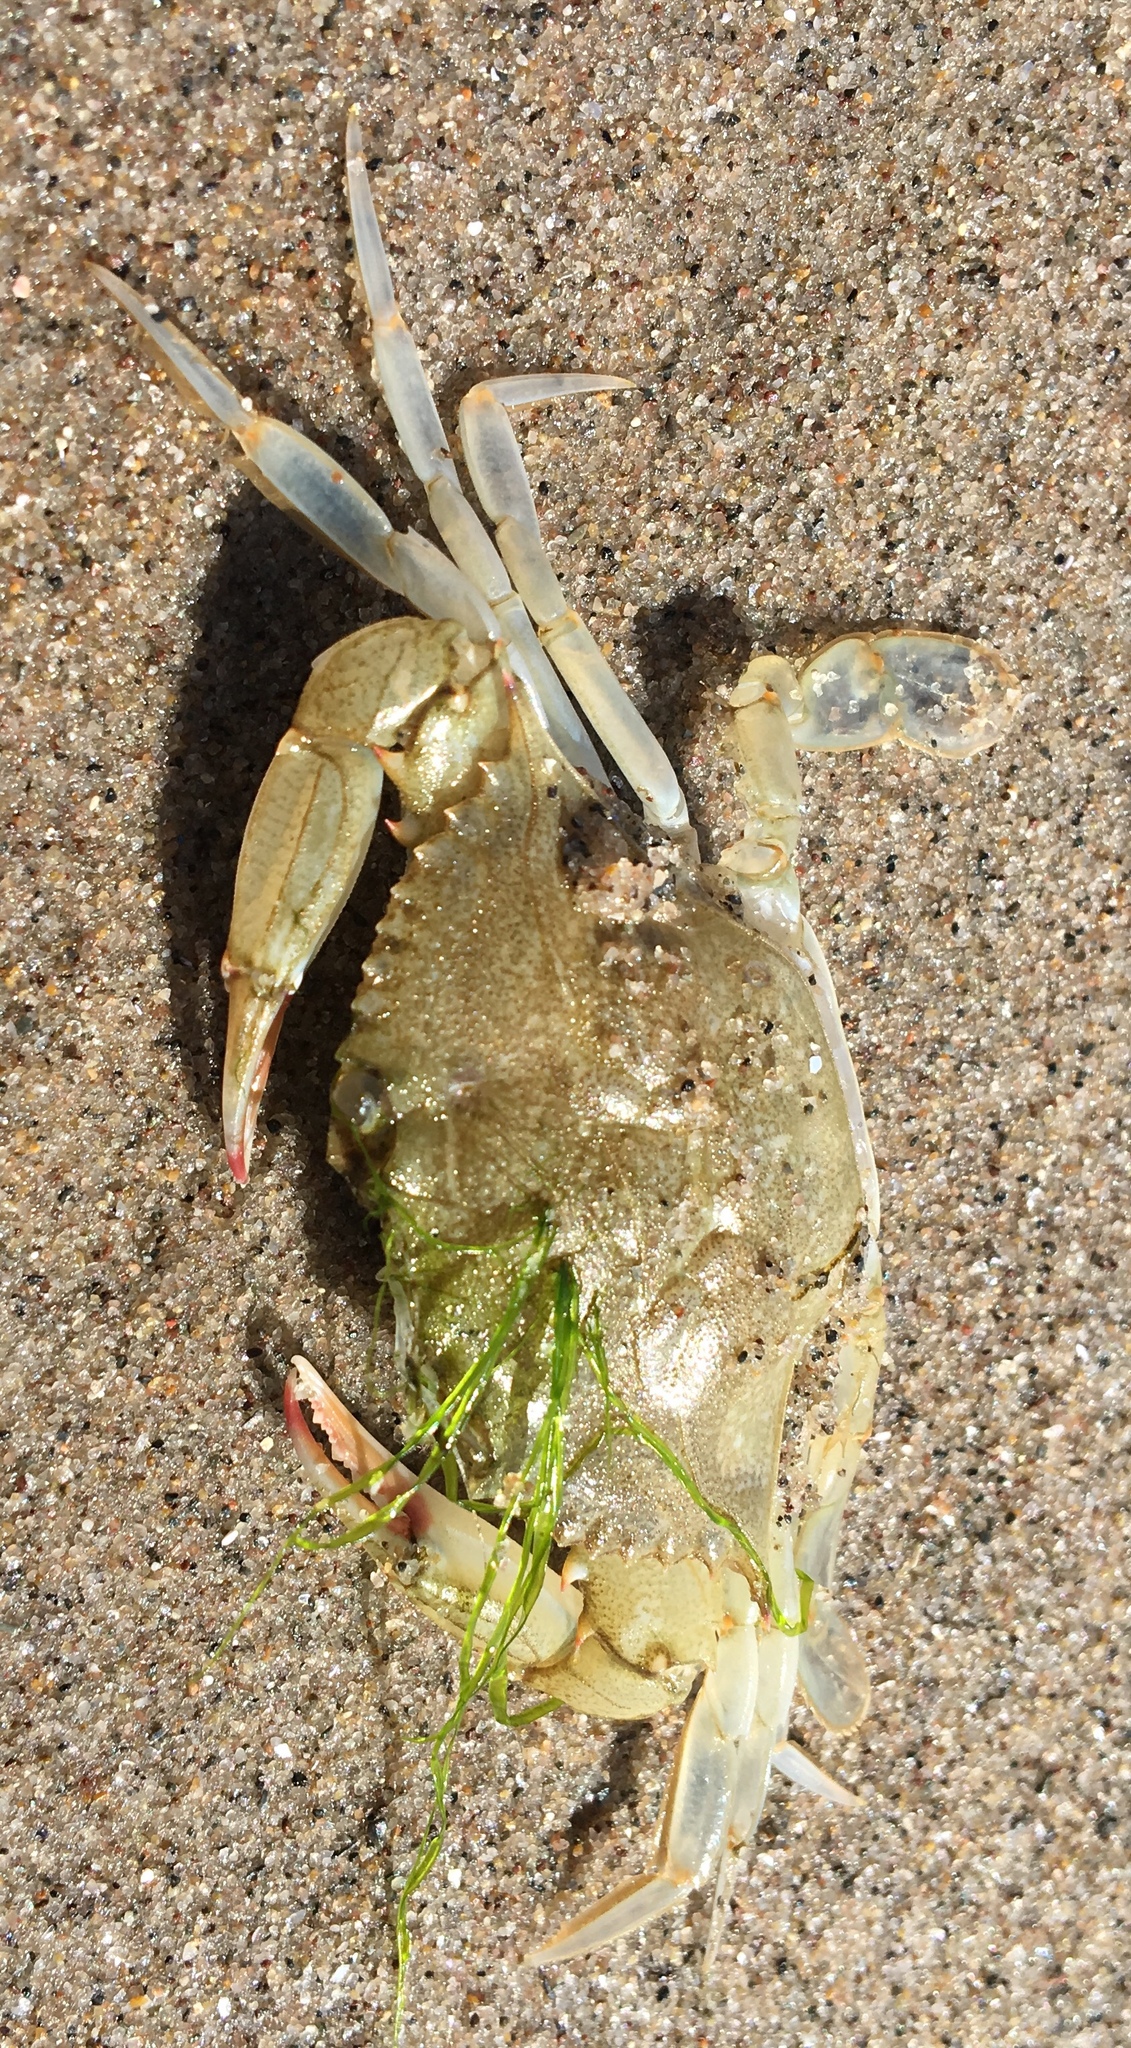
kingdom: Animalia
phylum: Arthropoda
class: Malacostraca
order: Decapoda
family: Portunidae
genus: Callinectes
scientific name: Callinectes sapidus
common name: Blue crab
